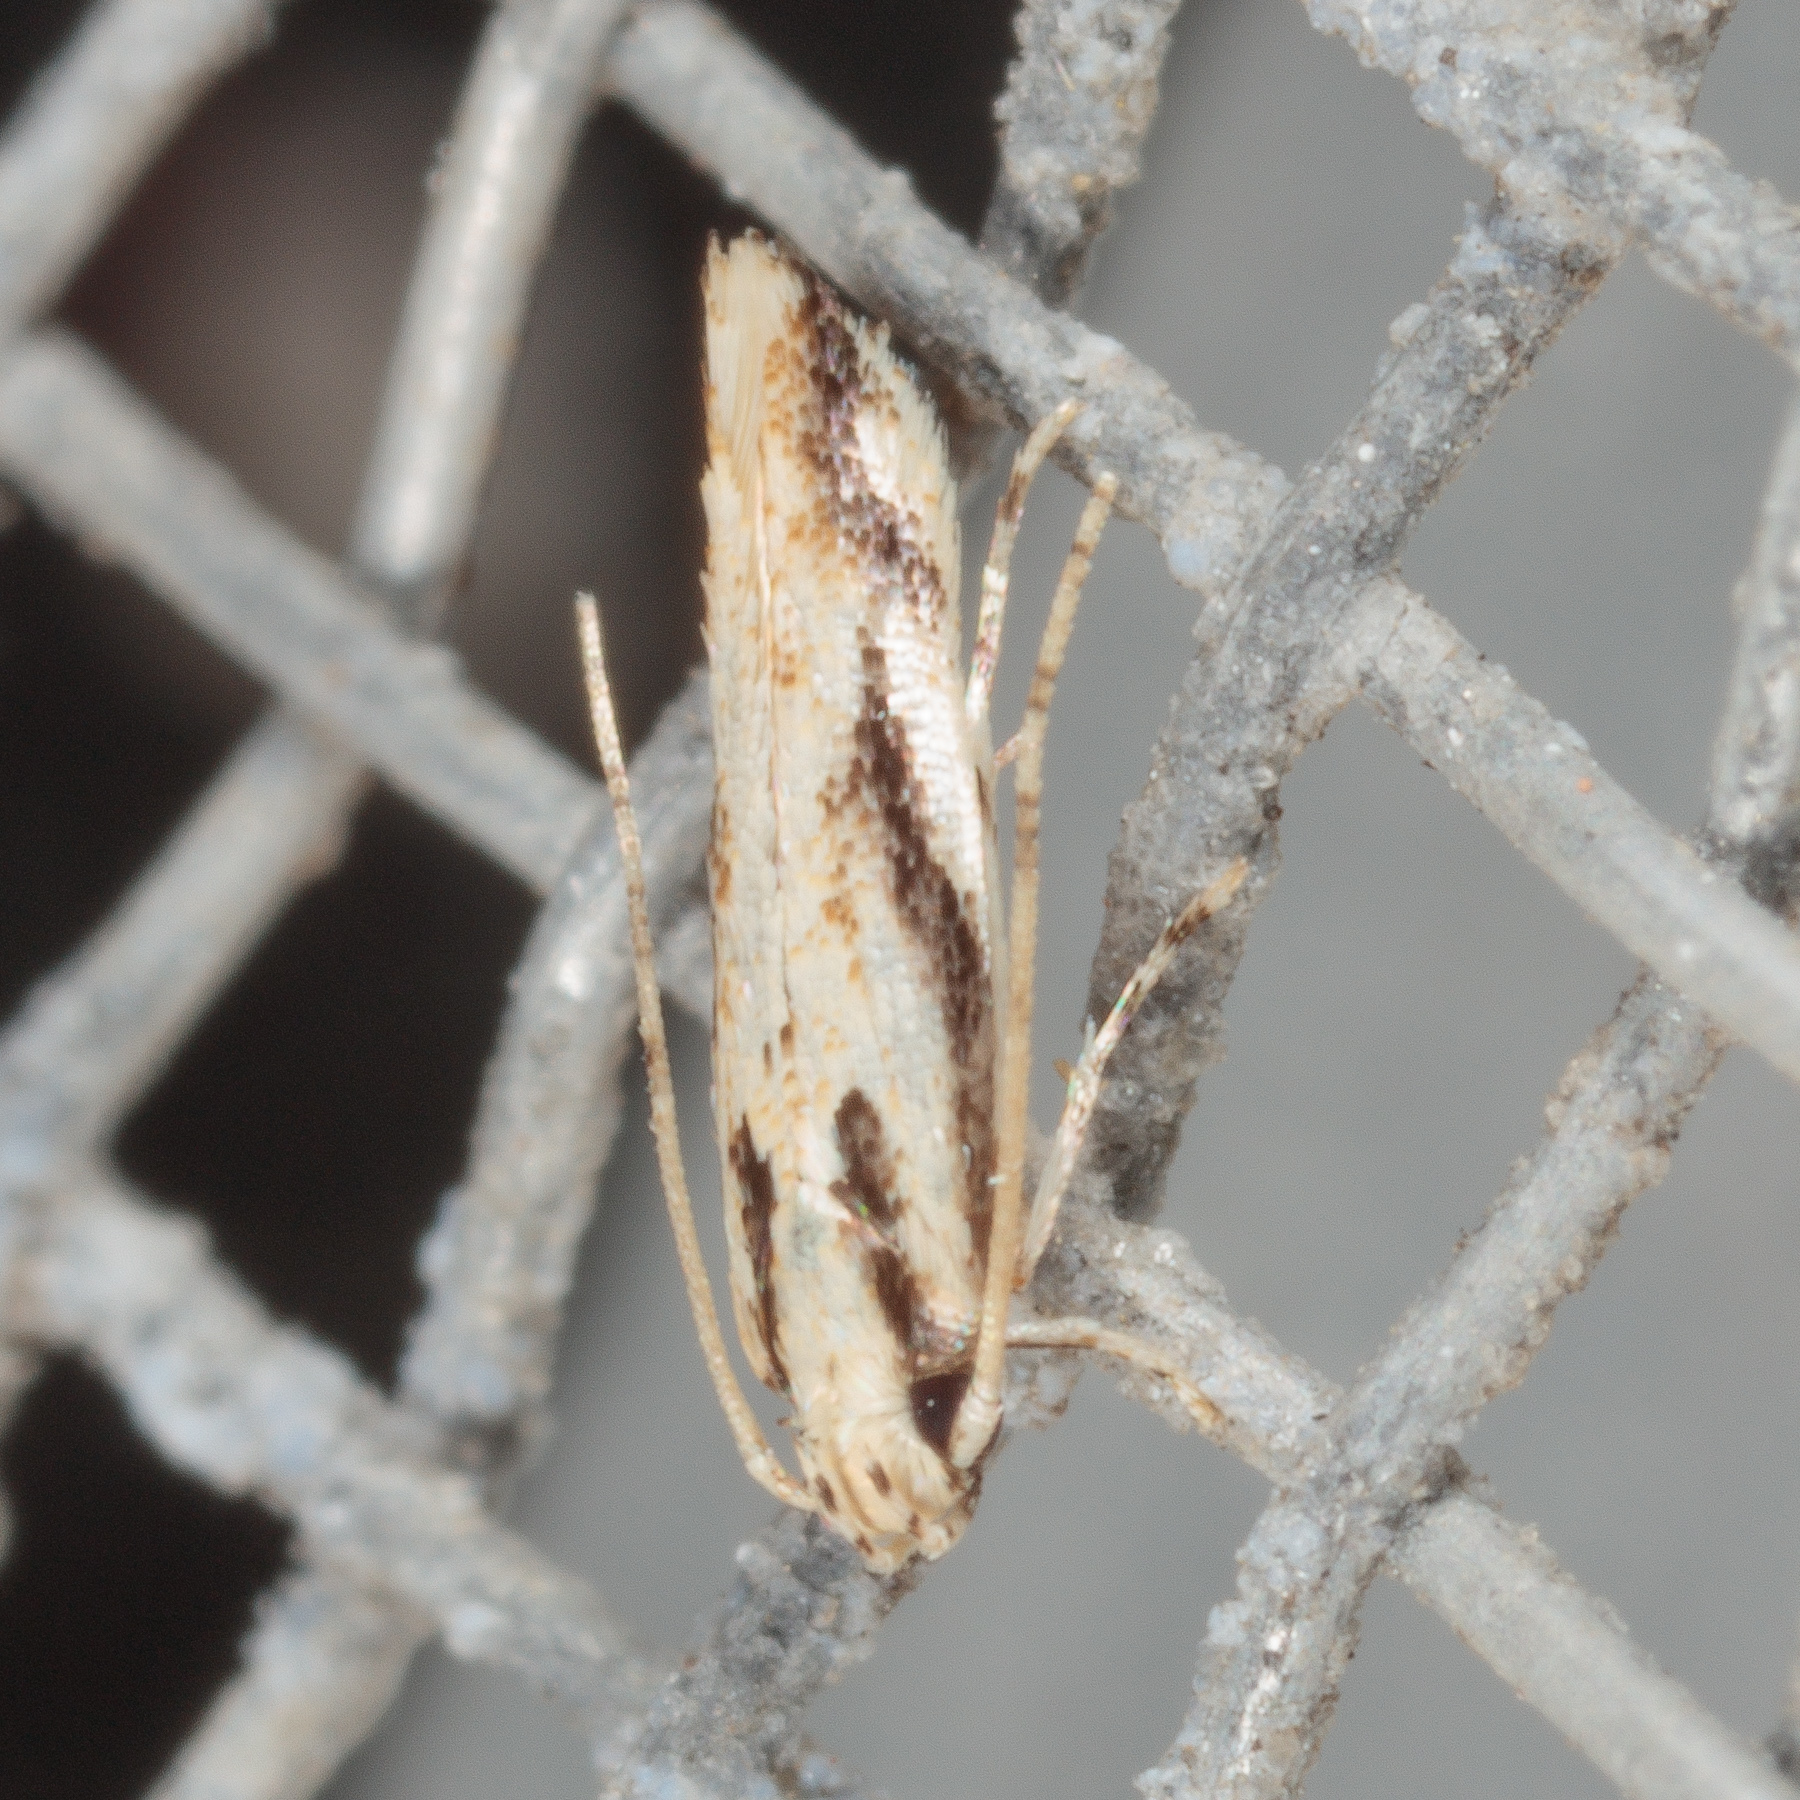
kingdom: Animalia
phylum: Arthropoda
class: Insecta
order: Lepidoptera
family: Cosmopterigidae
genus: Melanocinclis
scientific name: Melanocinclis lineigera
